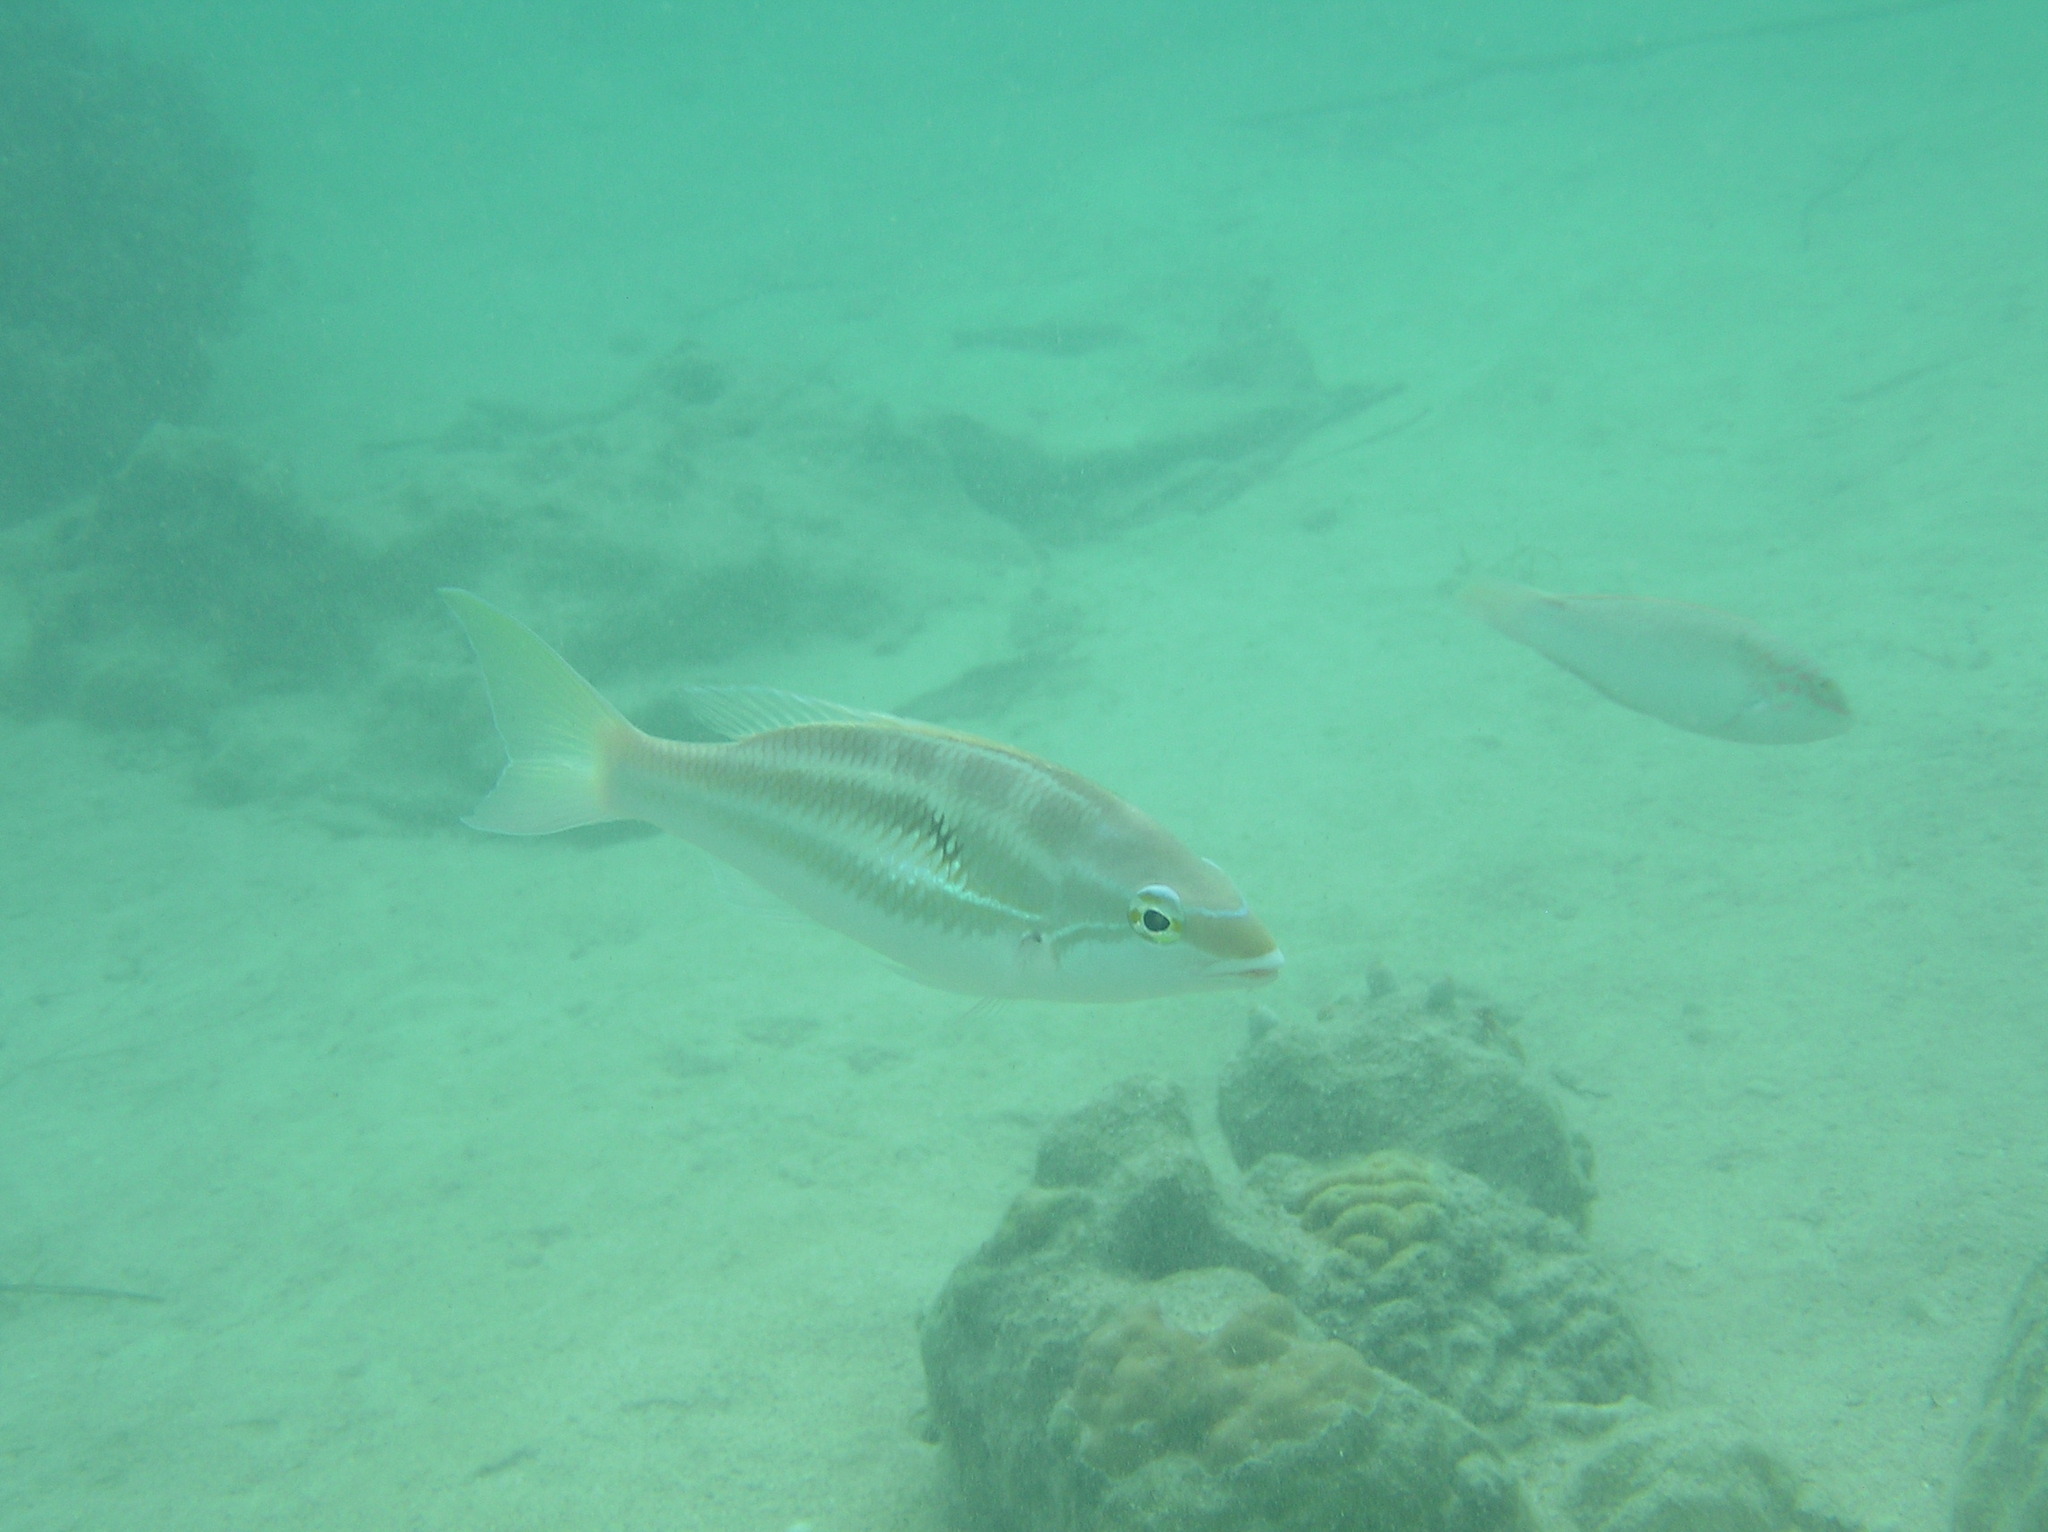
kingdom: Animalia
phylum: Chordata
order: Perciformes
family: Nemipteridae
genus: Pentapodus
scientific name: Pentapodus trivittatus
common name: Three-striped whiptail
